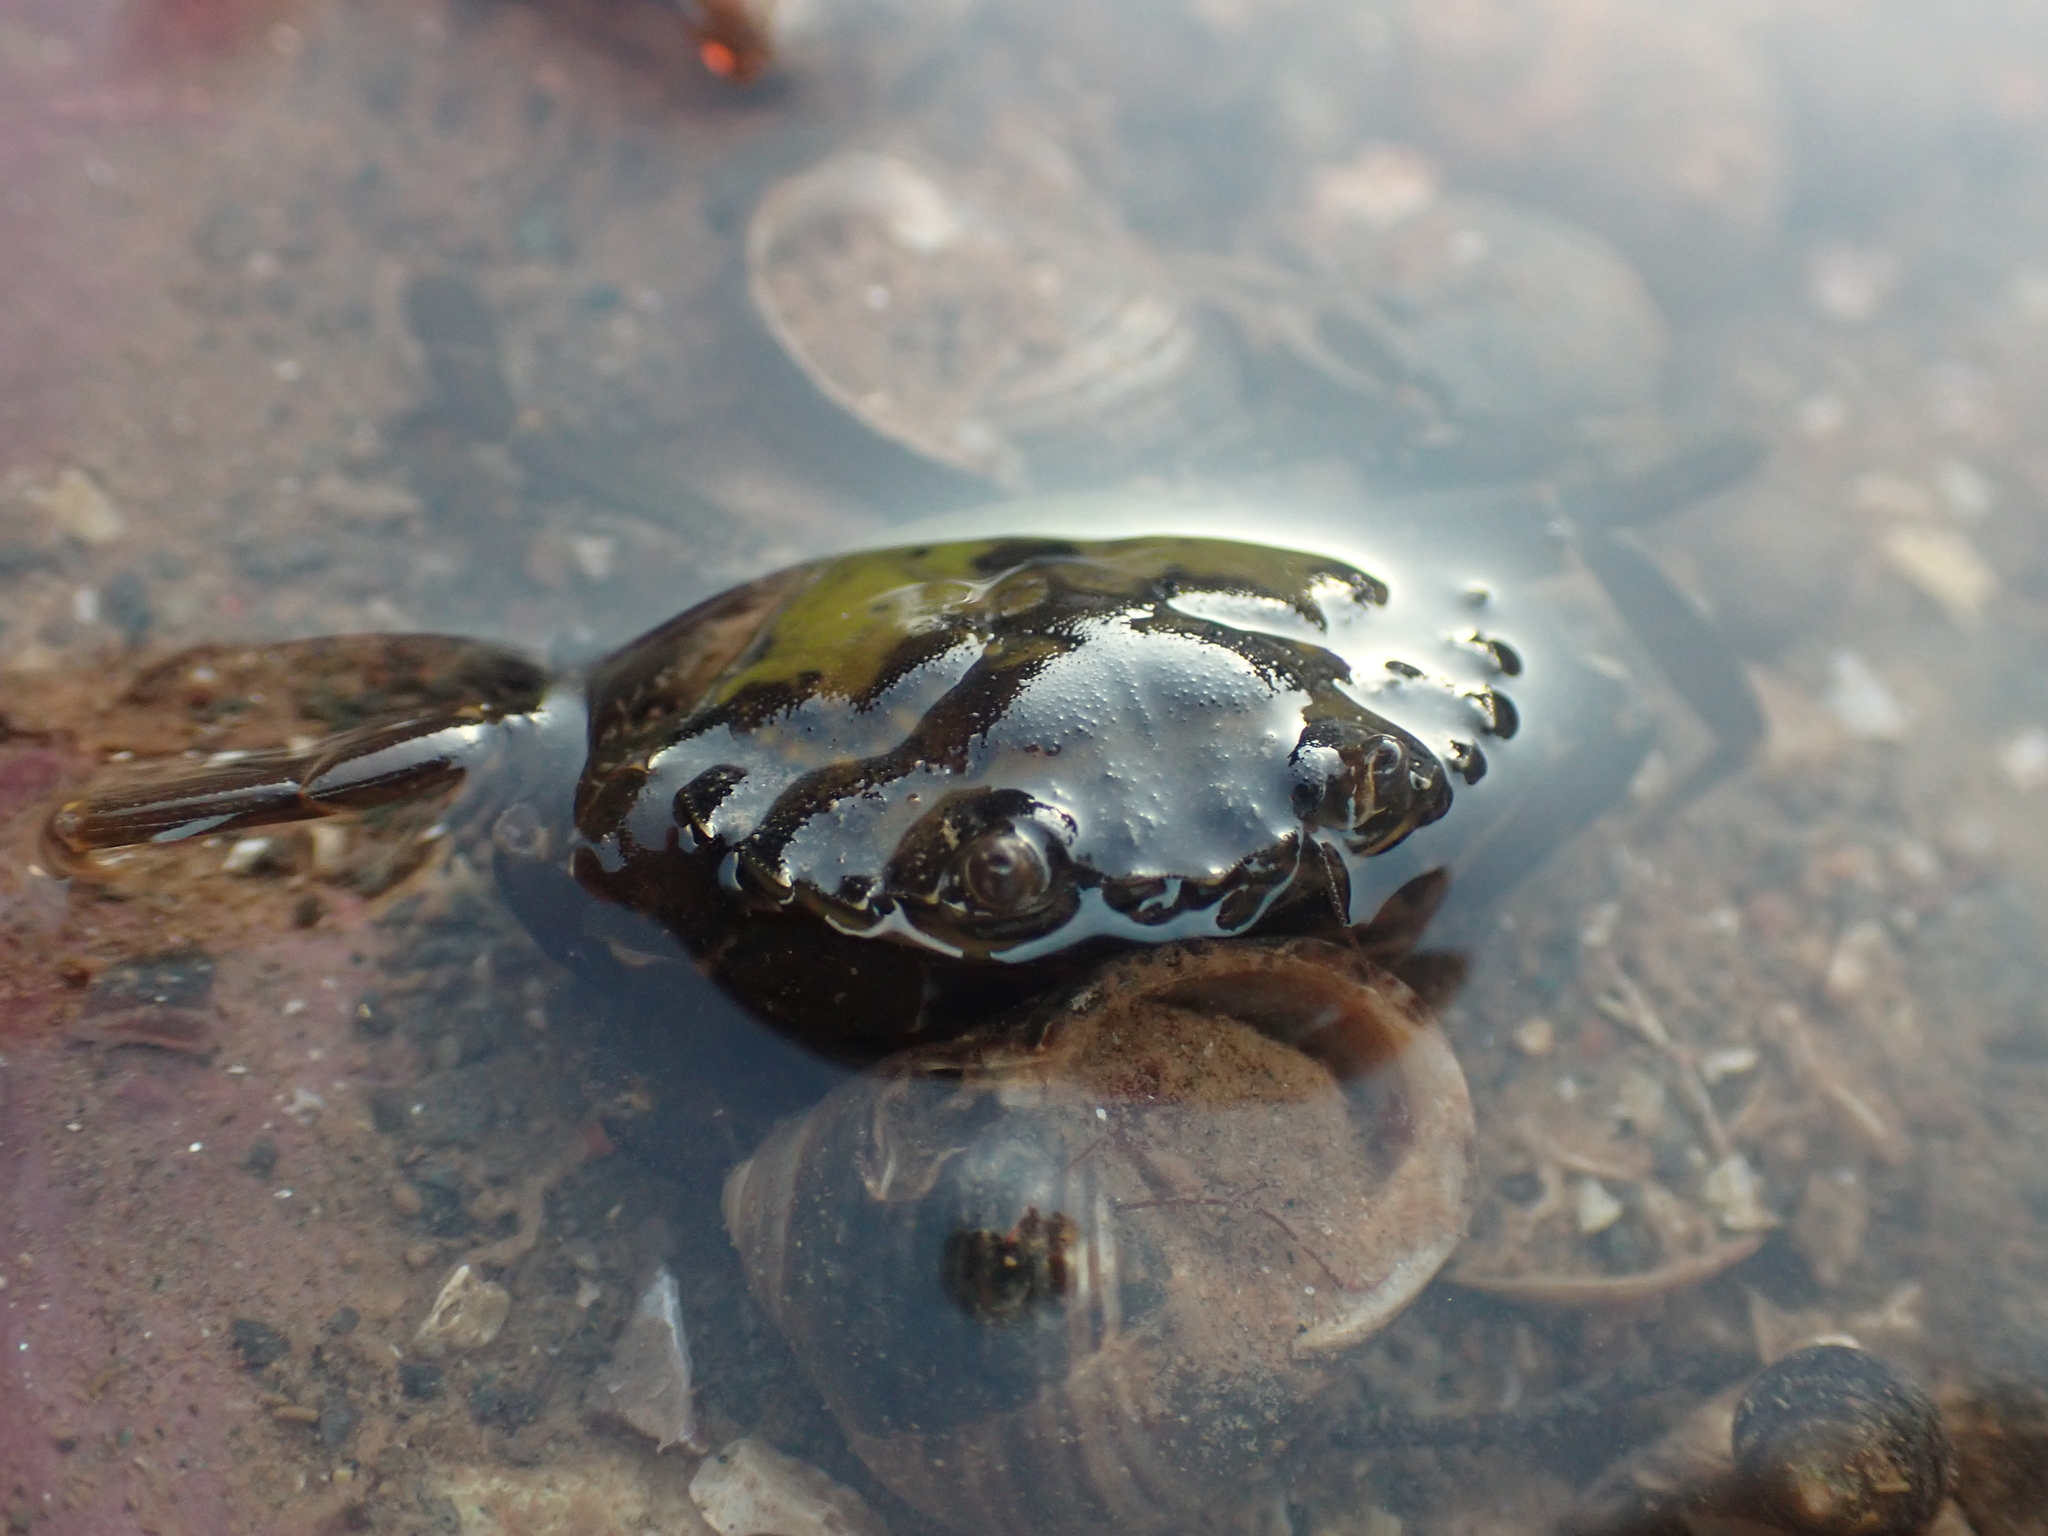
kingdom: Animalia
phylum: Arthropoda
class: Malacostraca
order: Decapoda
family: Carcinidae
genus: Carcinus
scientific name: Carcinus maenas
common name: European green crab
